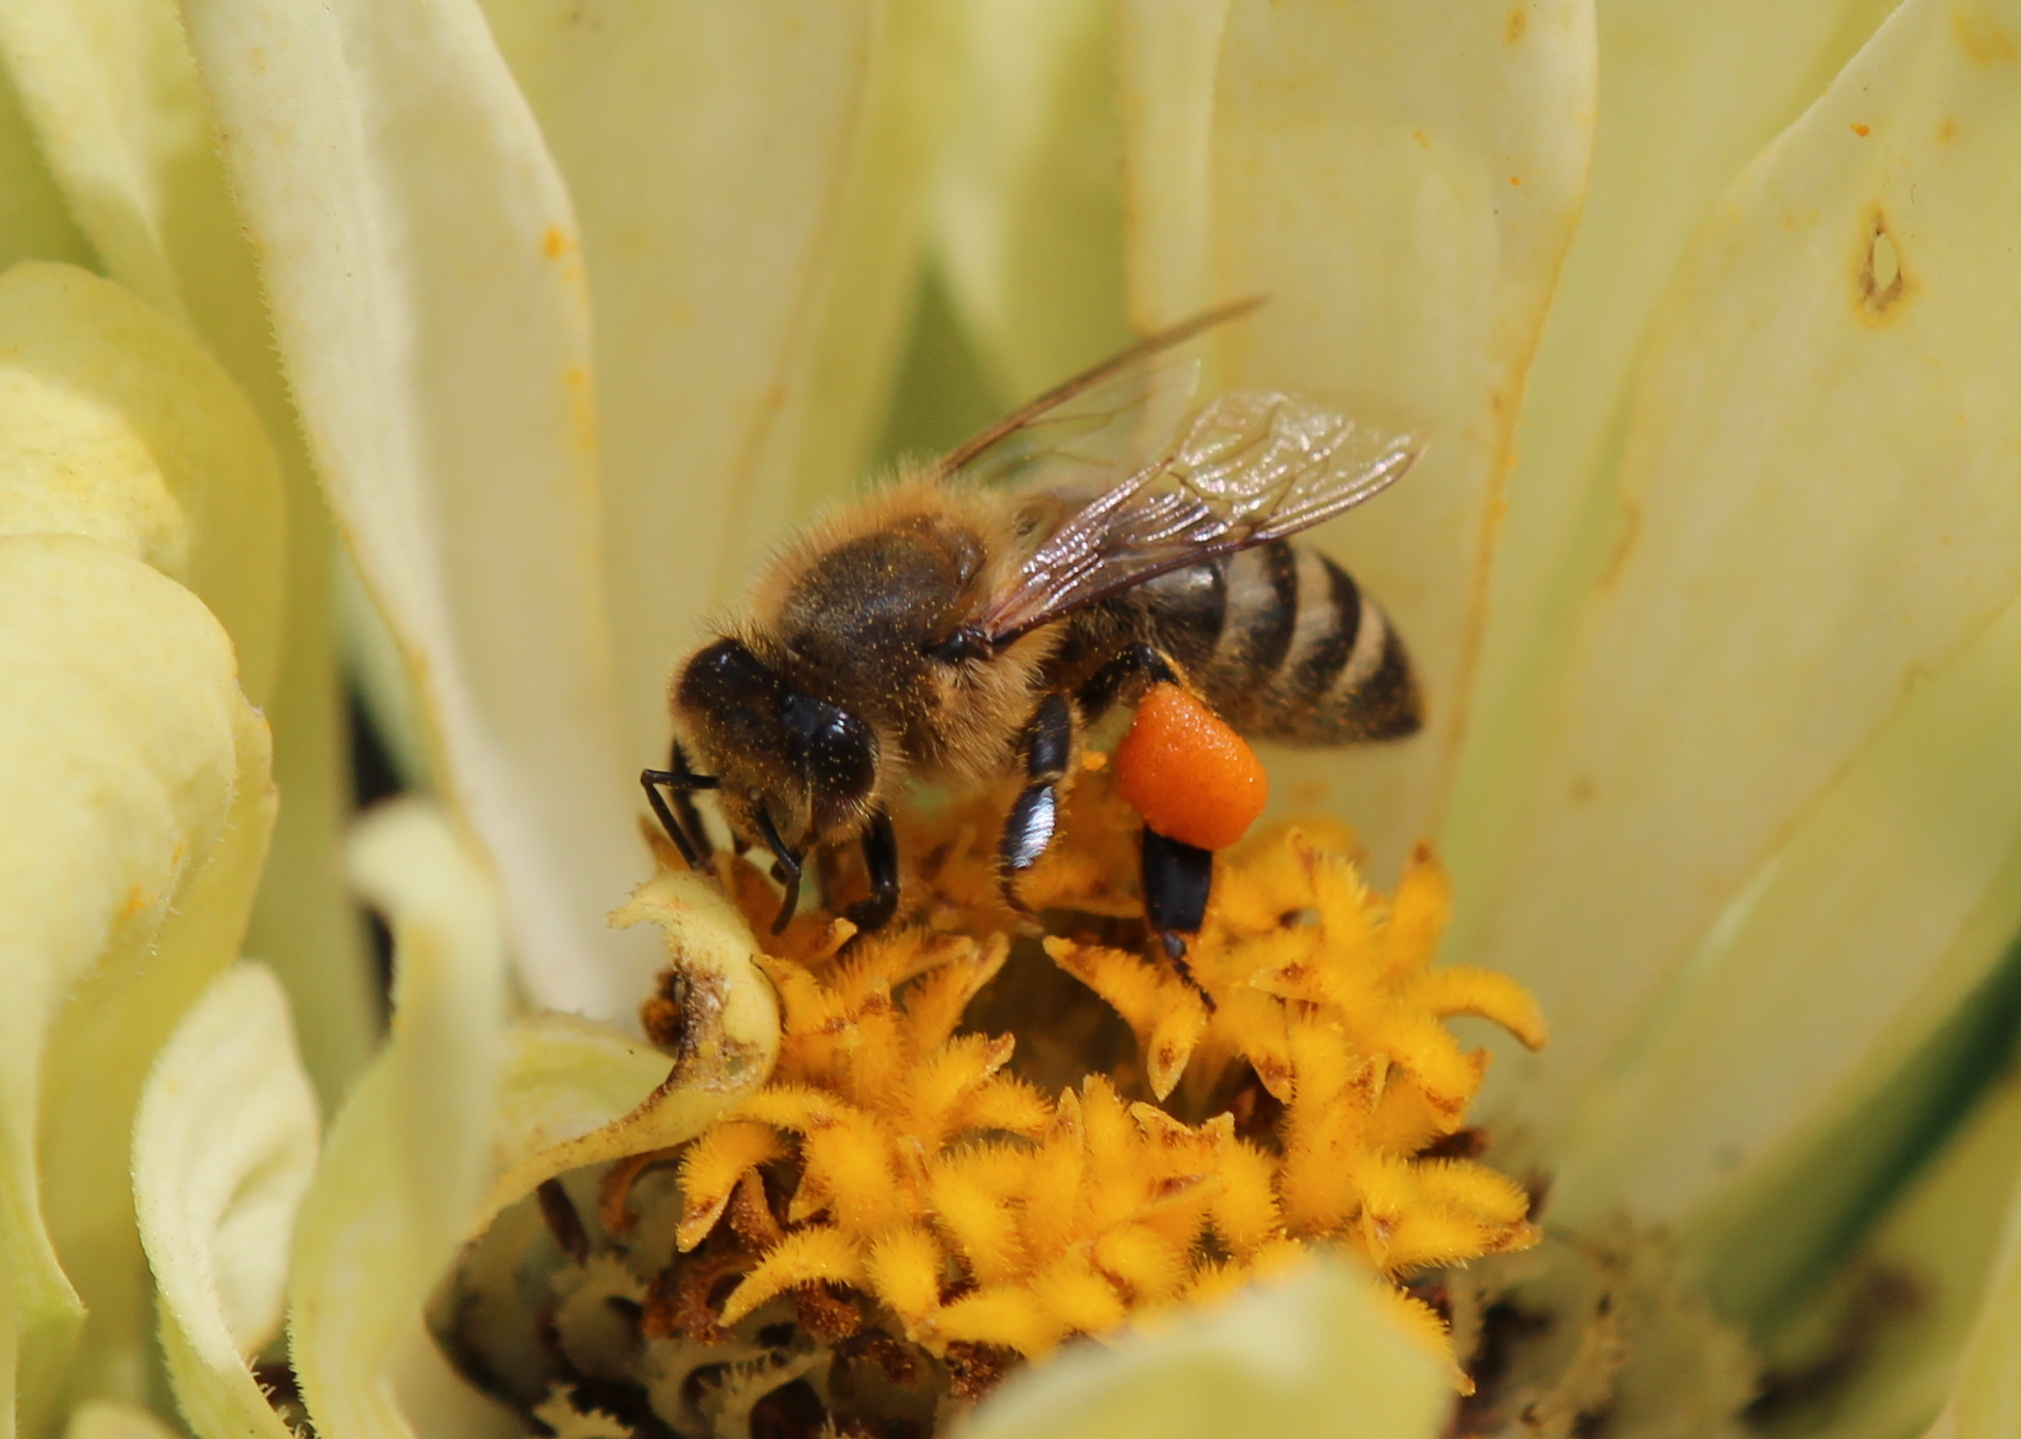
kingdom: Animalia
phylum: Arthropoda
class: Insecta
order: Hymenoptera
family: Apidae
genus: Apis
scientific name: Apis mellifera
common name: Honey bee
